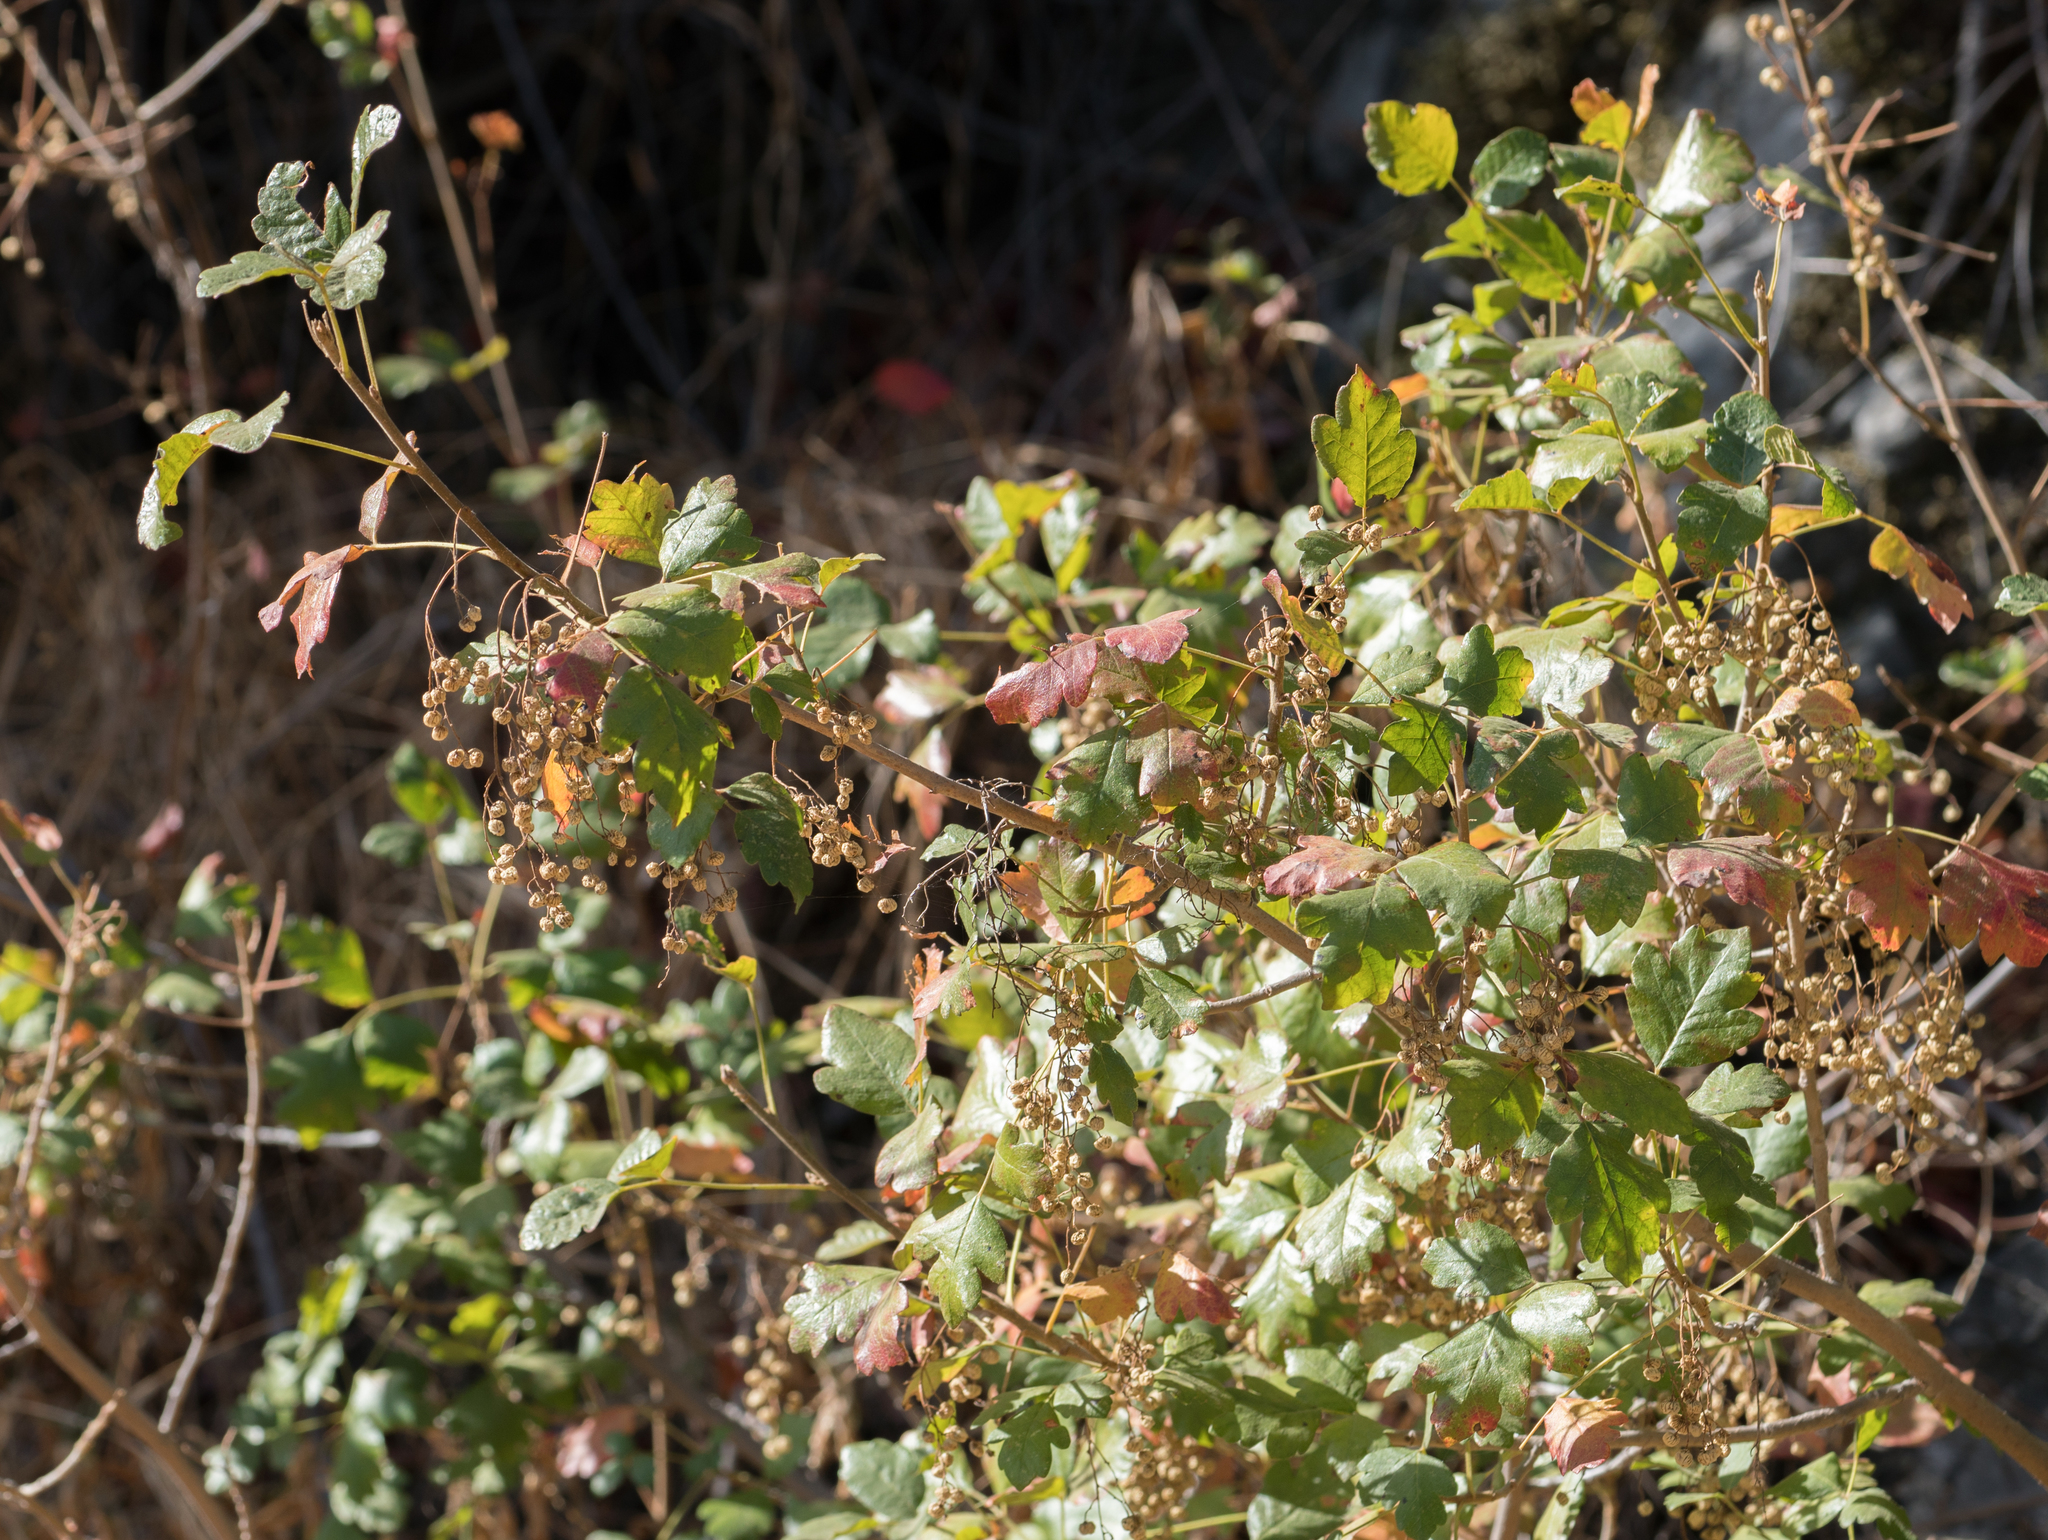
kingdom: Plantae
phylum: Tracheophyta
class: Magnoliopsida
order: Sapindales
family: Anacardiaceae
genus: Toxicodendron
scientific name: Toxicodendron diversilobum
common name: Pacific poison-oak
